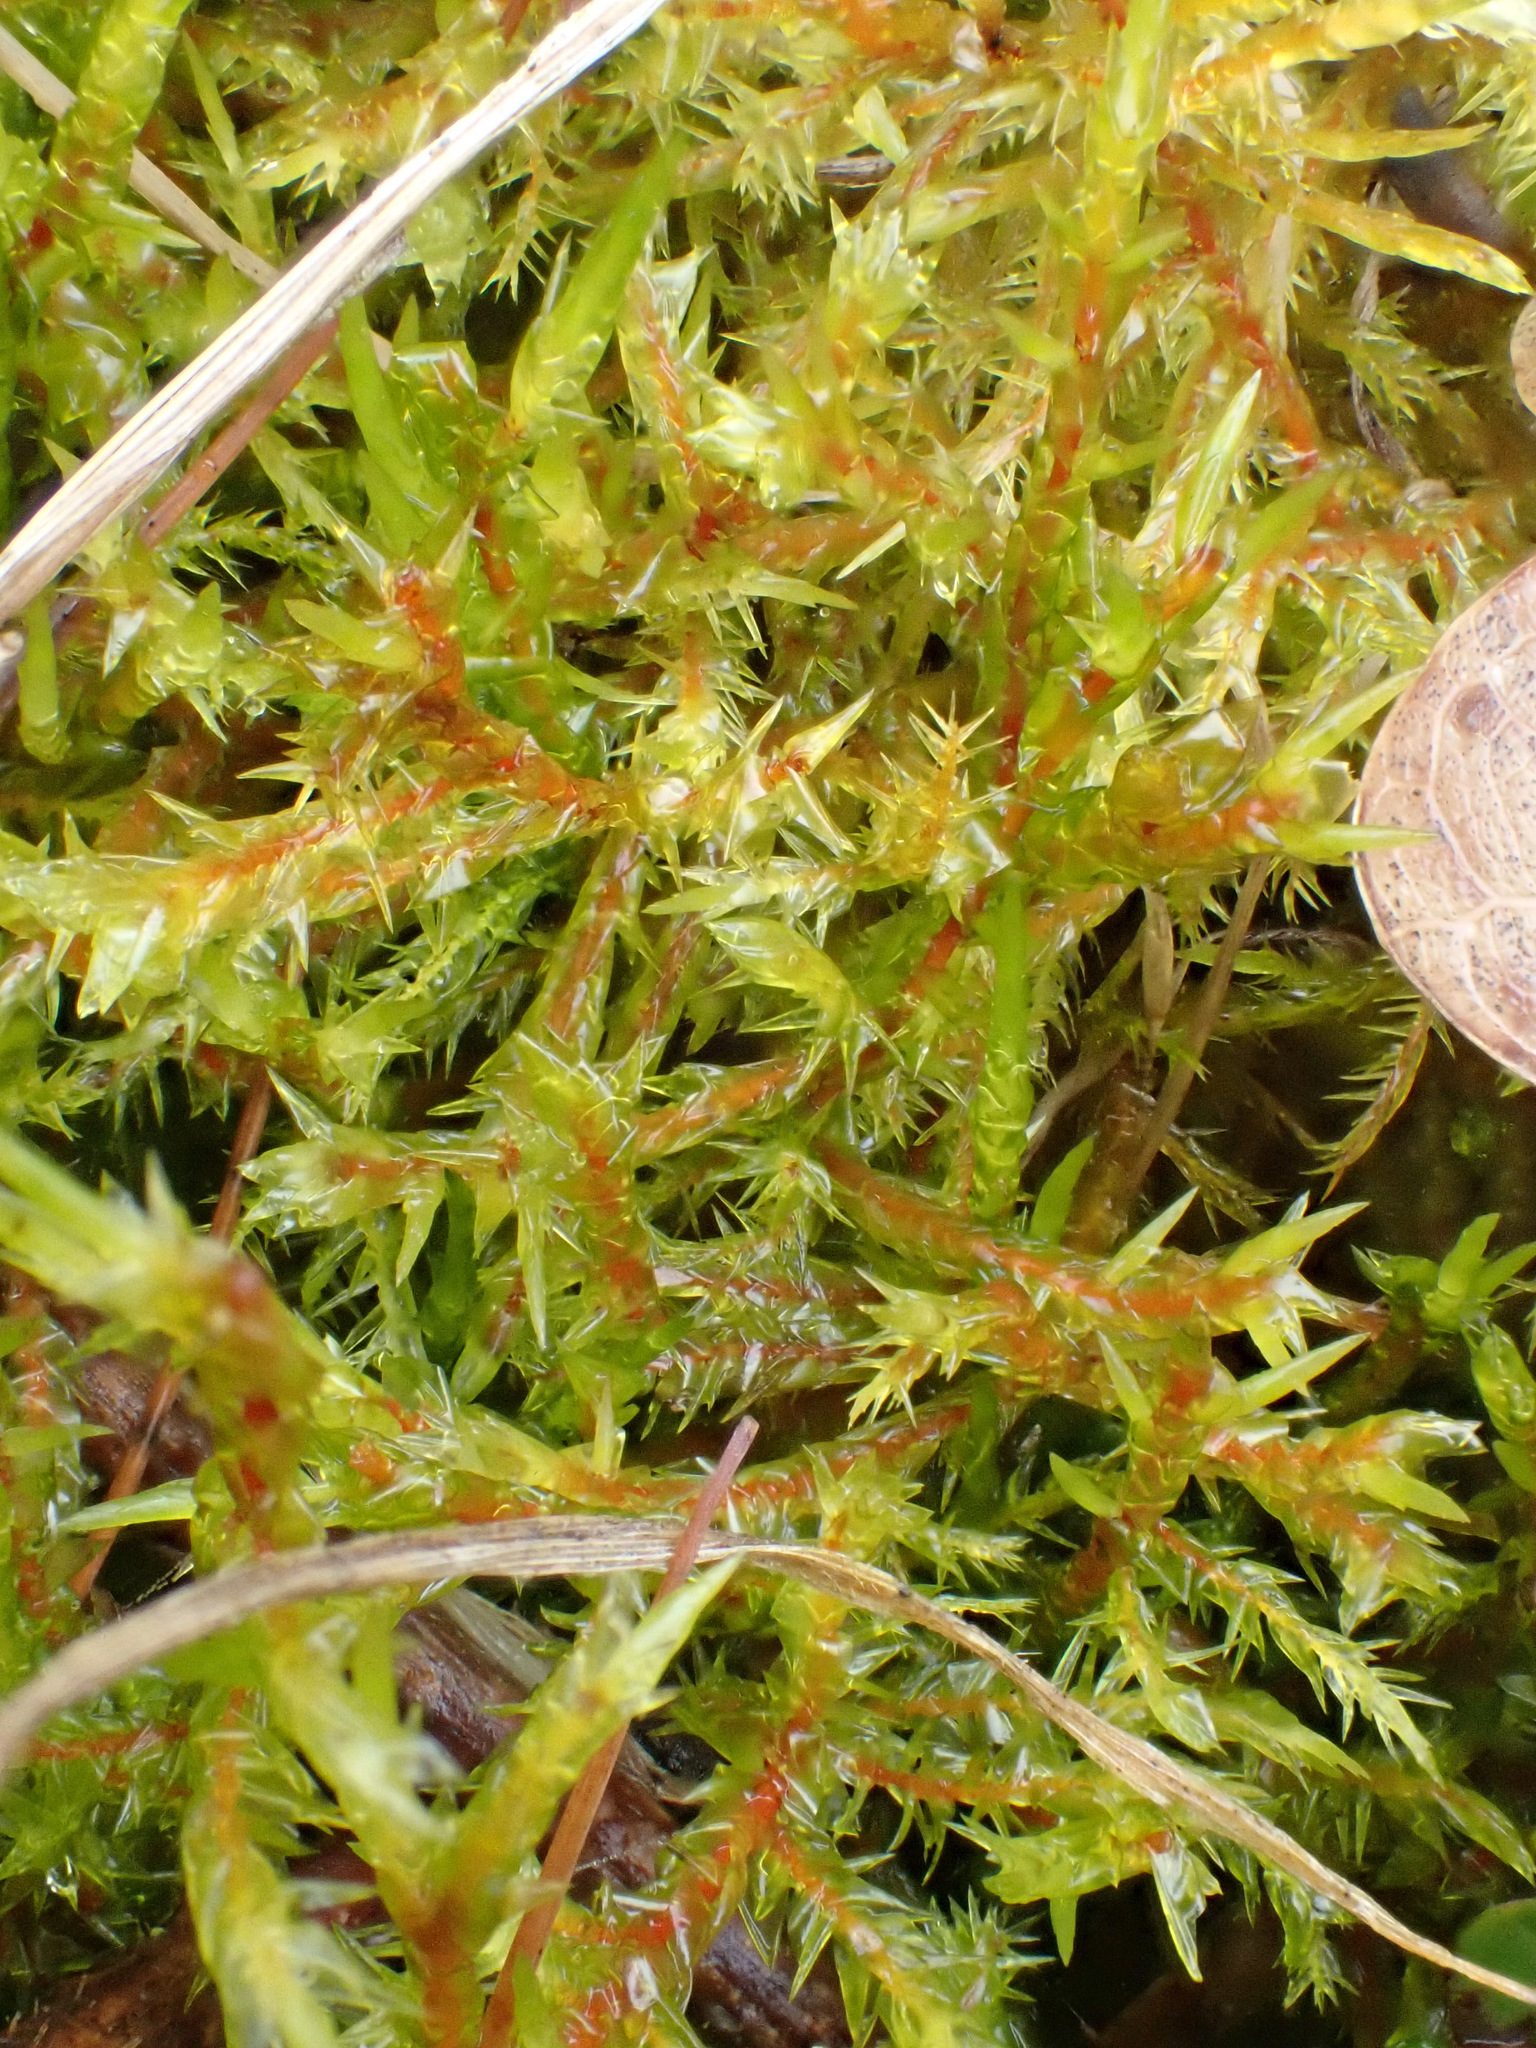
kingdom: Plantae
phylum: Bryophyta
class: Bryopsida
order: Hypnales
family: Pylaisiaceae
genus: Calliergonella
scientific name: Calliergonella cuspidata
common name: Common large wetland moss
